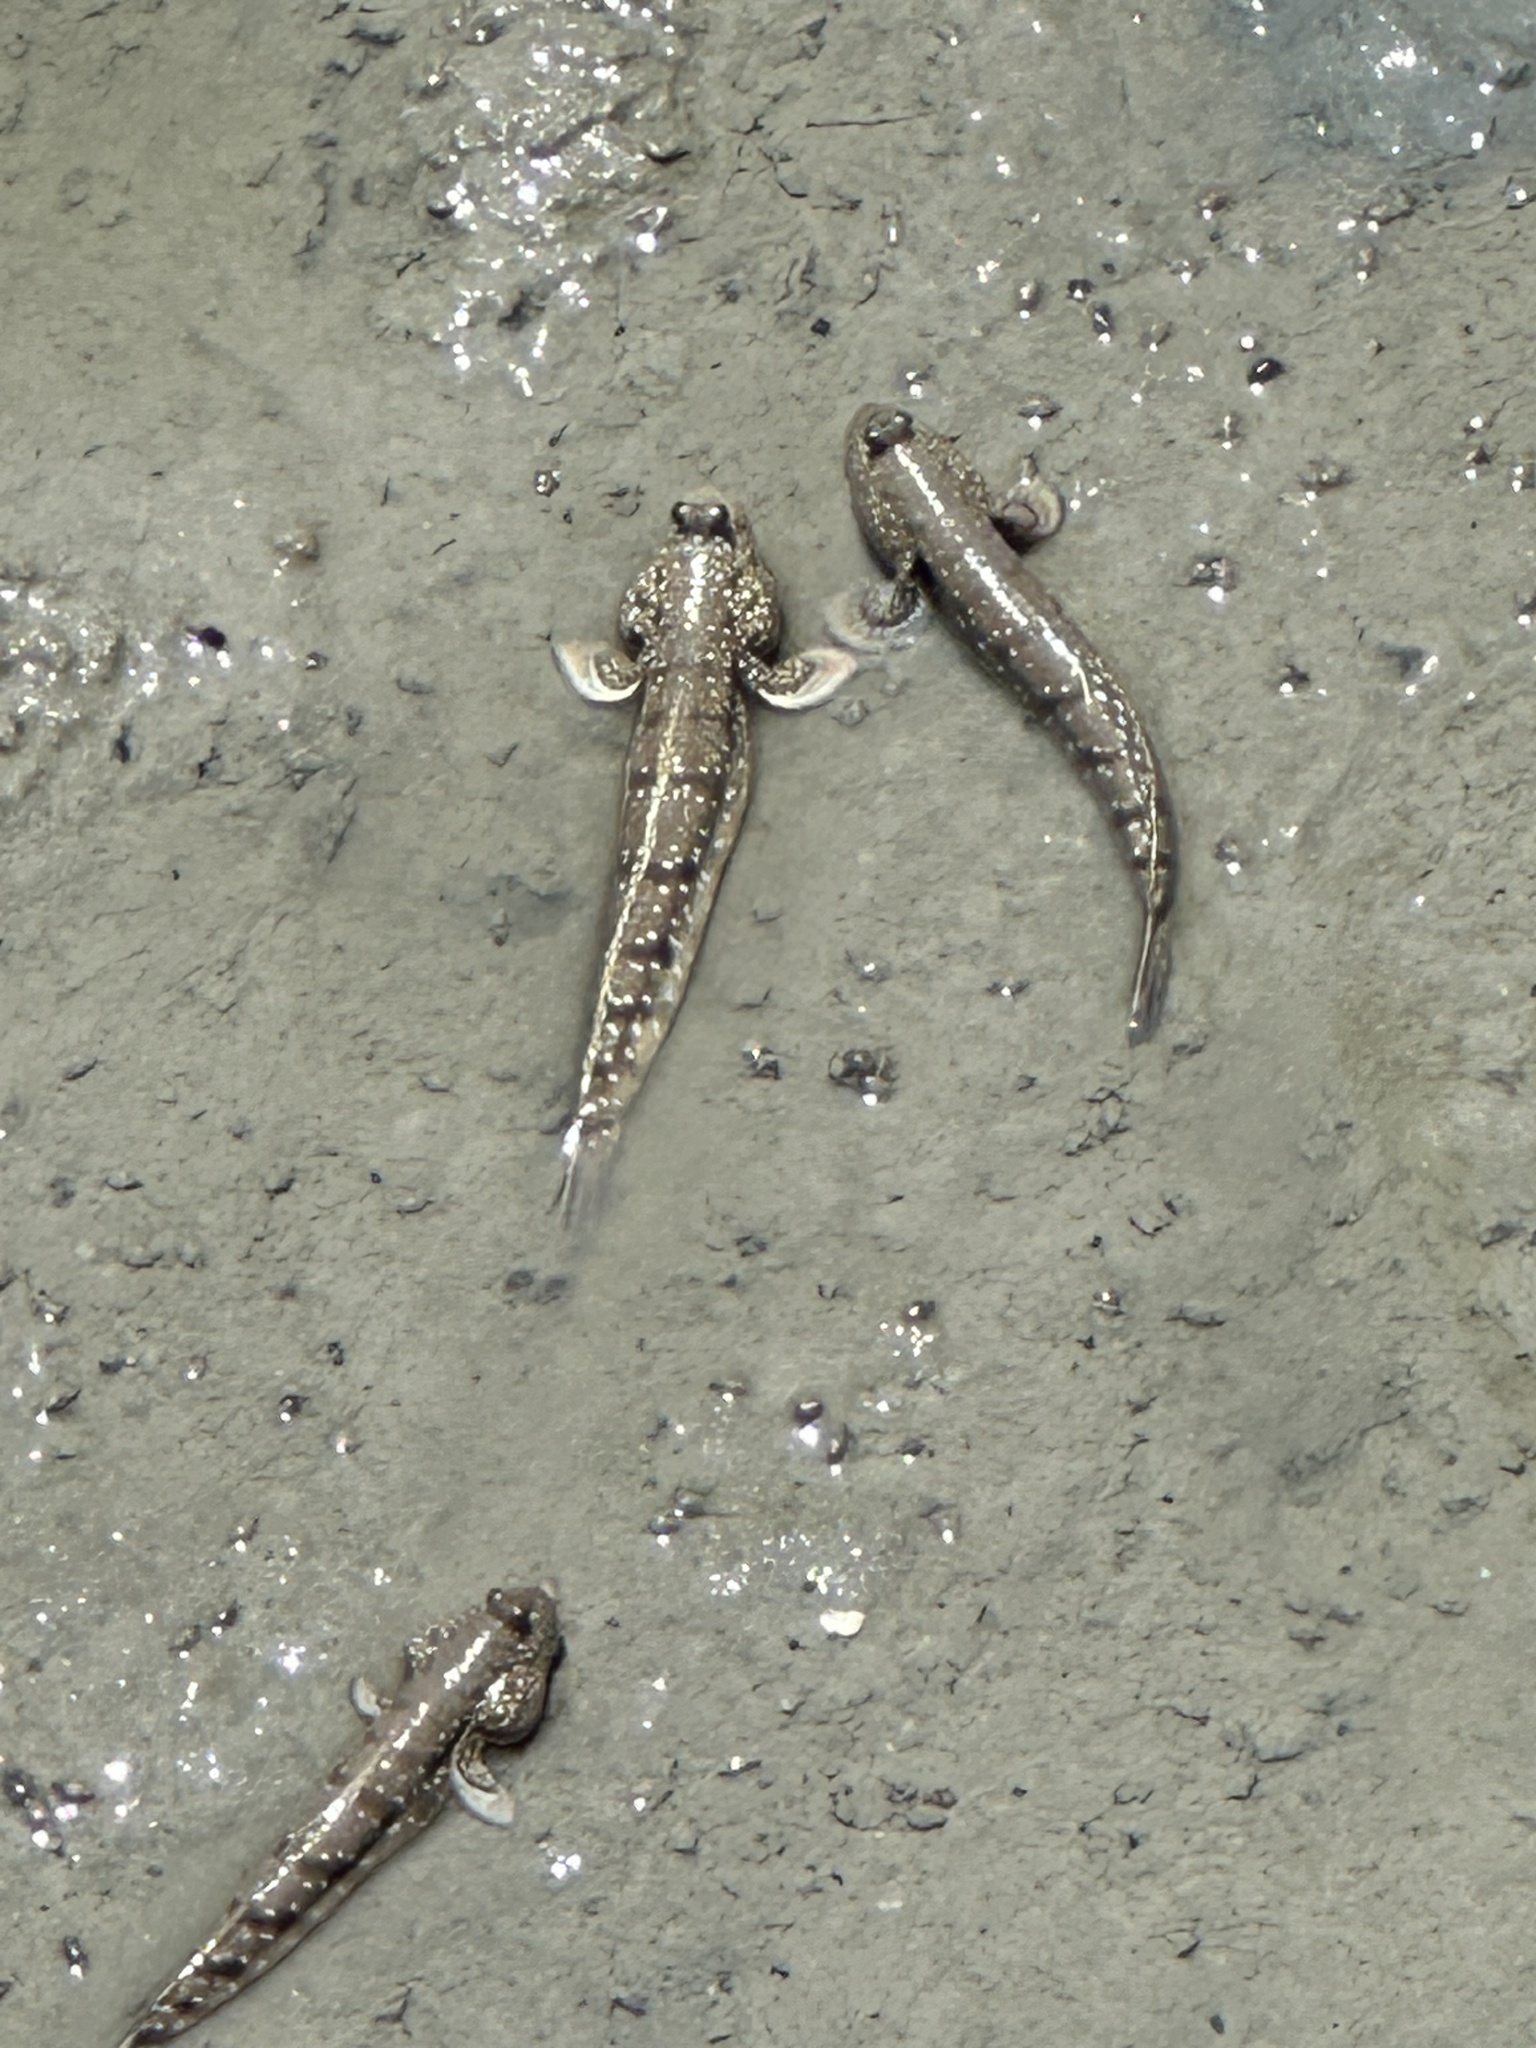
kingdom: Animalia
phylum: Chordata
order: Perciformes
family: Gobiidae
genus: Boleophthalmus
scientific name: Boleophthalmus boddarti
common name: Boddart's goggle-eyed goby
